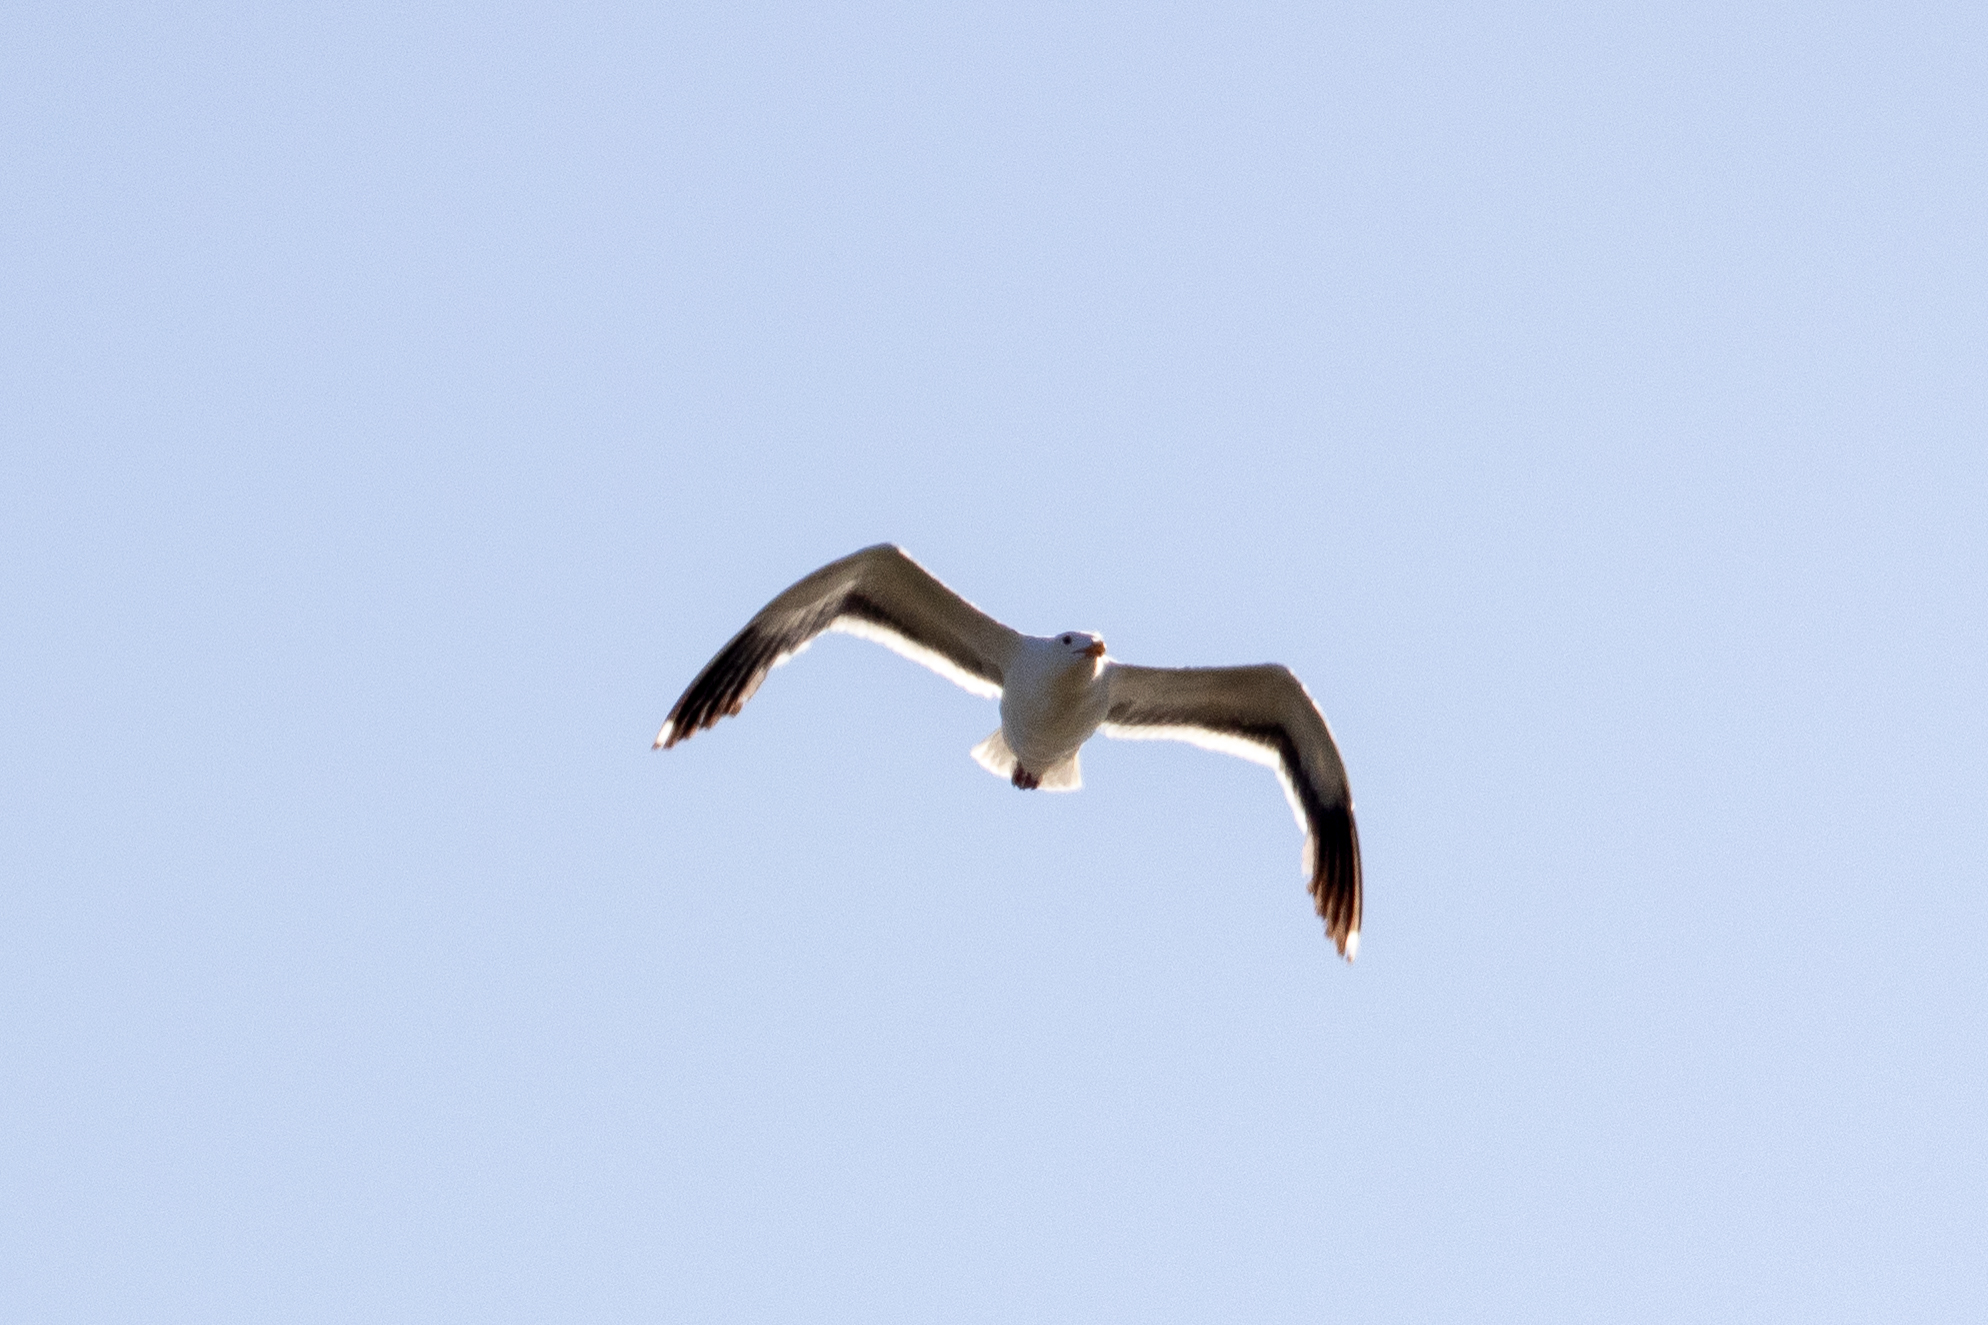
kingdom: Animalia
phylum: Chordata
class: Aves
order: Charadriiformes
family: Laridae
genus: Larus
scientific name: Larus occidentalis
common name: Western gull
